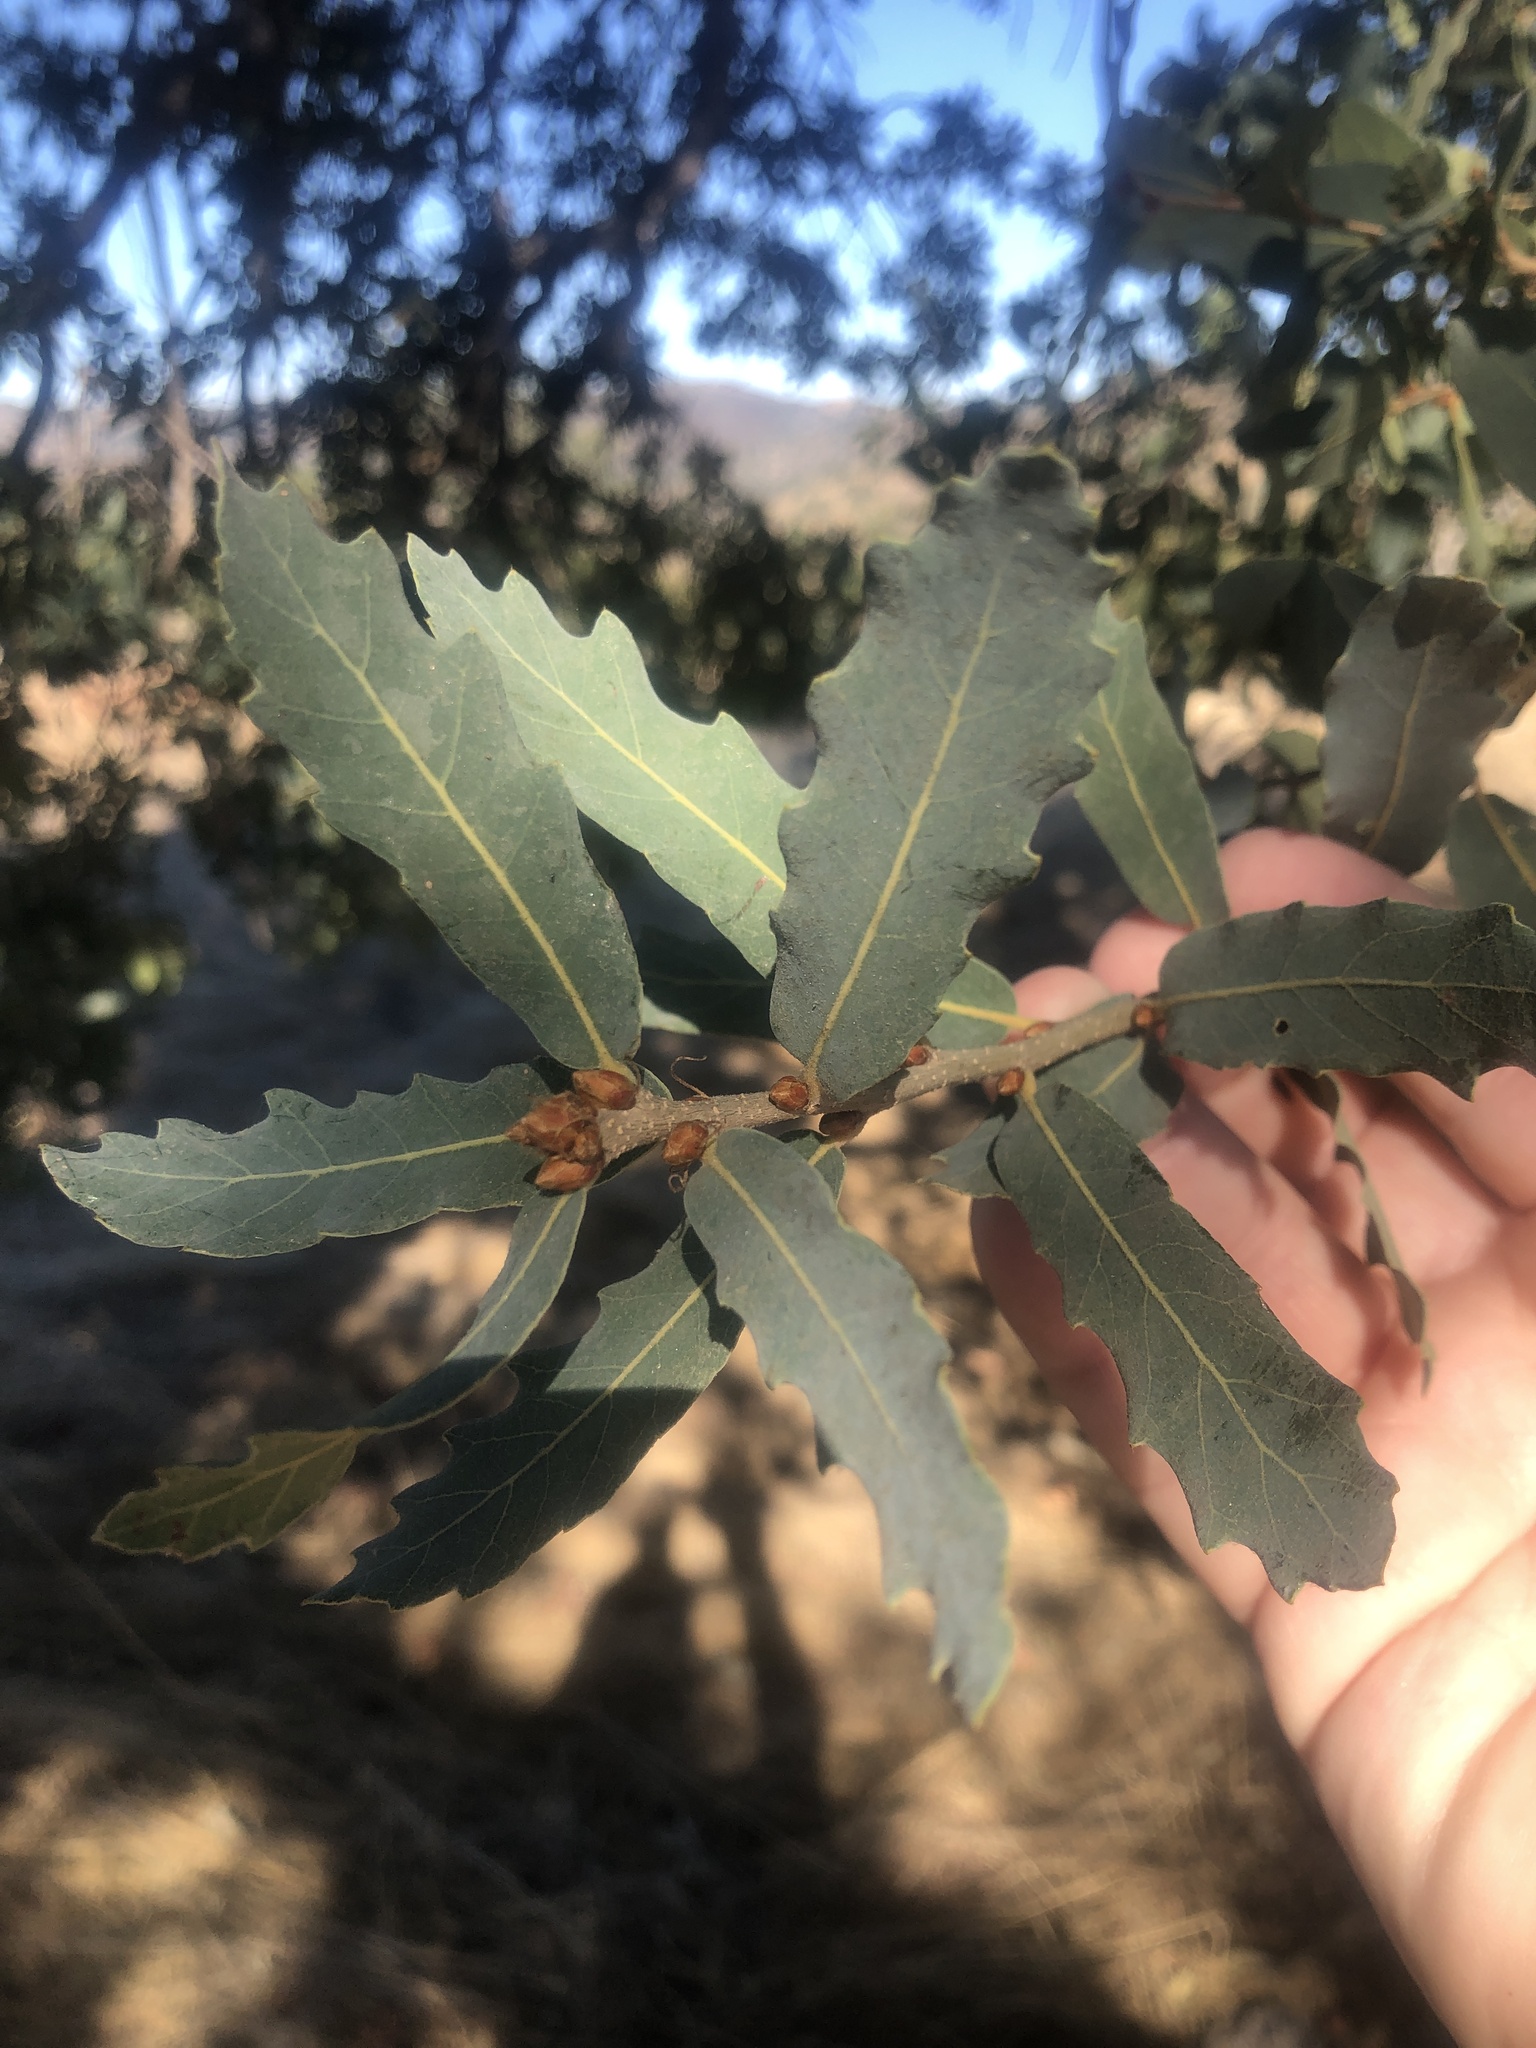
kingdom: Plantae
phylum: Tracheophyta
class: Magnoliopsida
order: Fagales
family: Fagaceae
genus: Quercus
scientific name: Quercus engelmannii
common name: Engelmann oak
